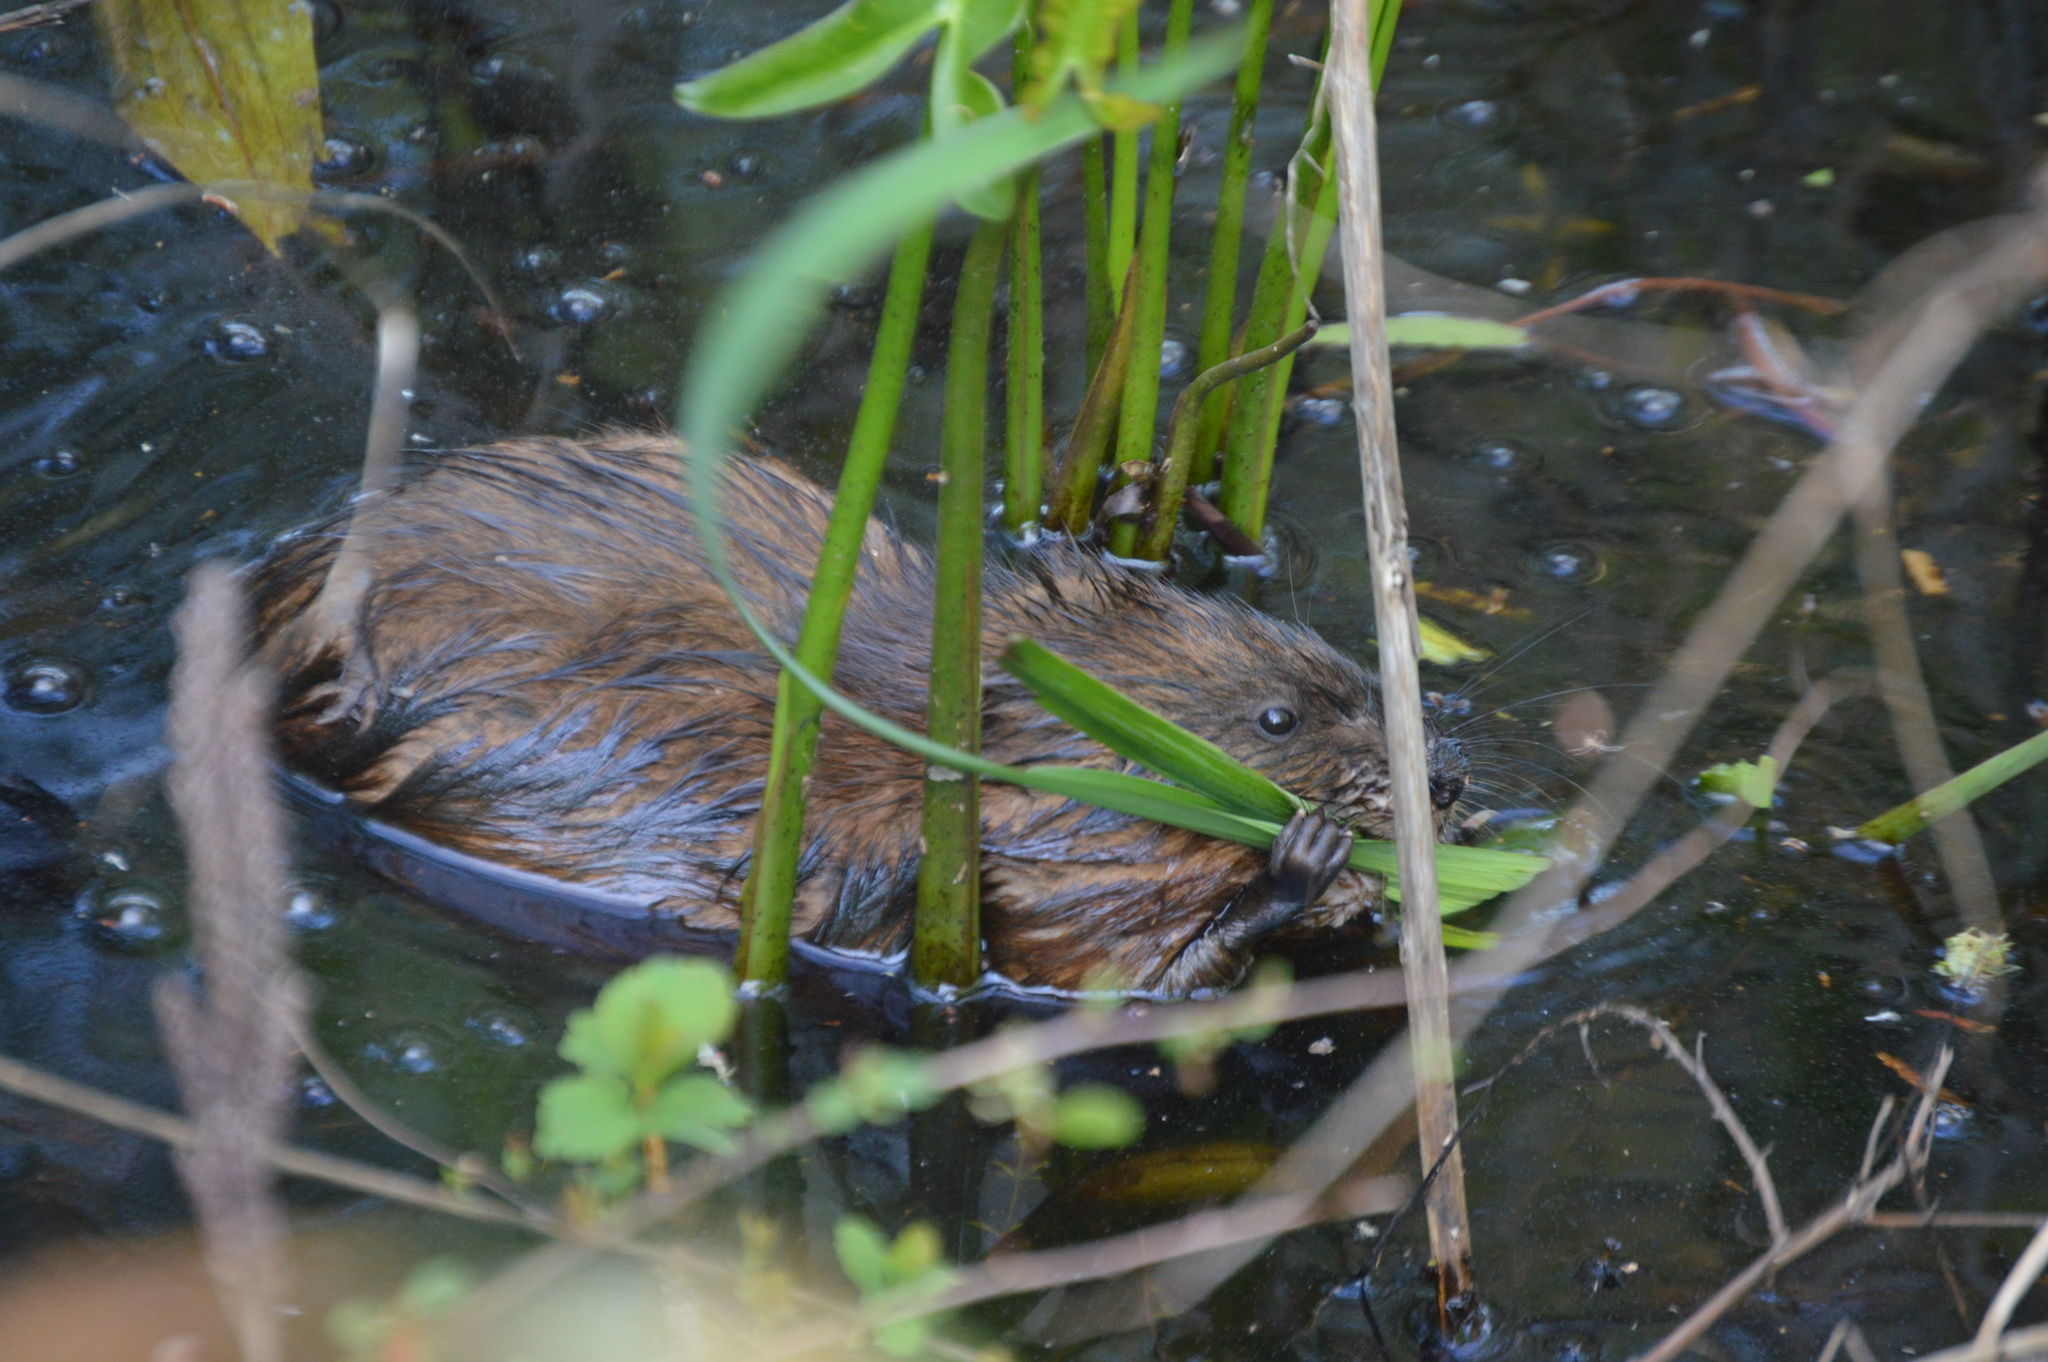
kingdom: Animalia
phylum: Chordata
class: Mammalia
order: Rodentia
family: Cricetidae
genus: Ondatra
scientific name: Ondatra zibethicus
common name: Muskrat
